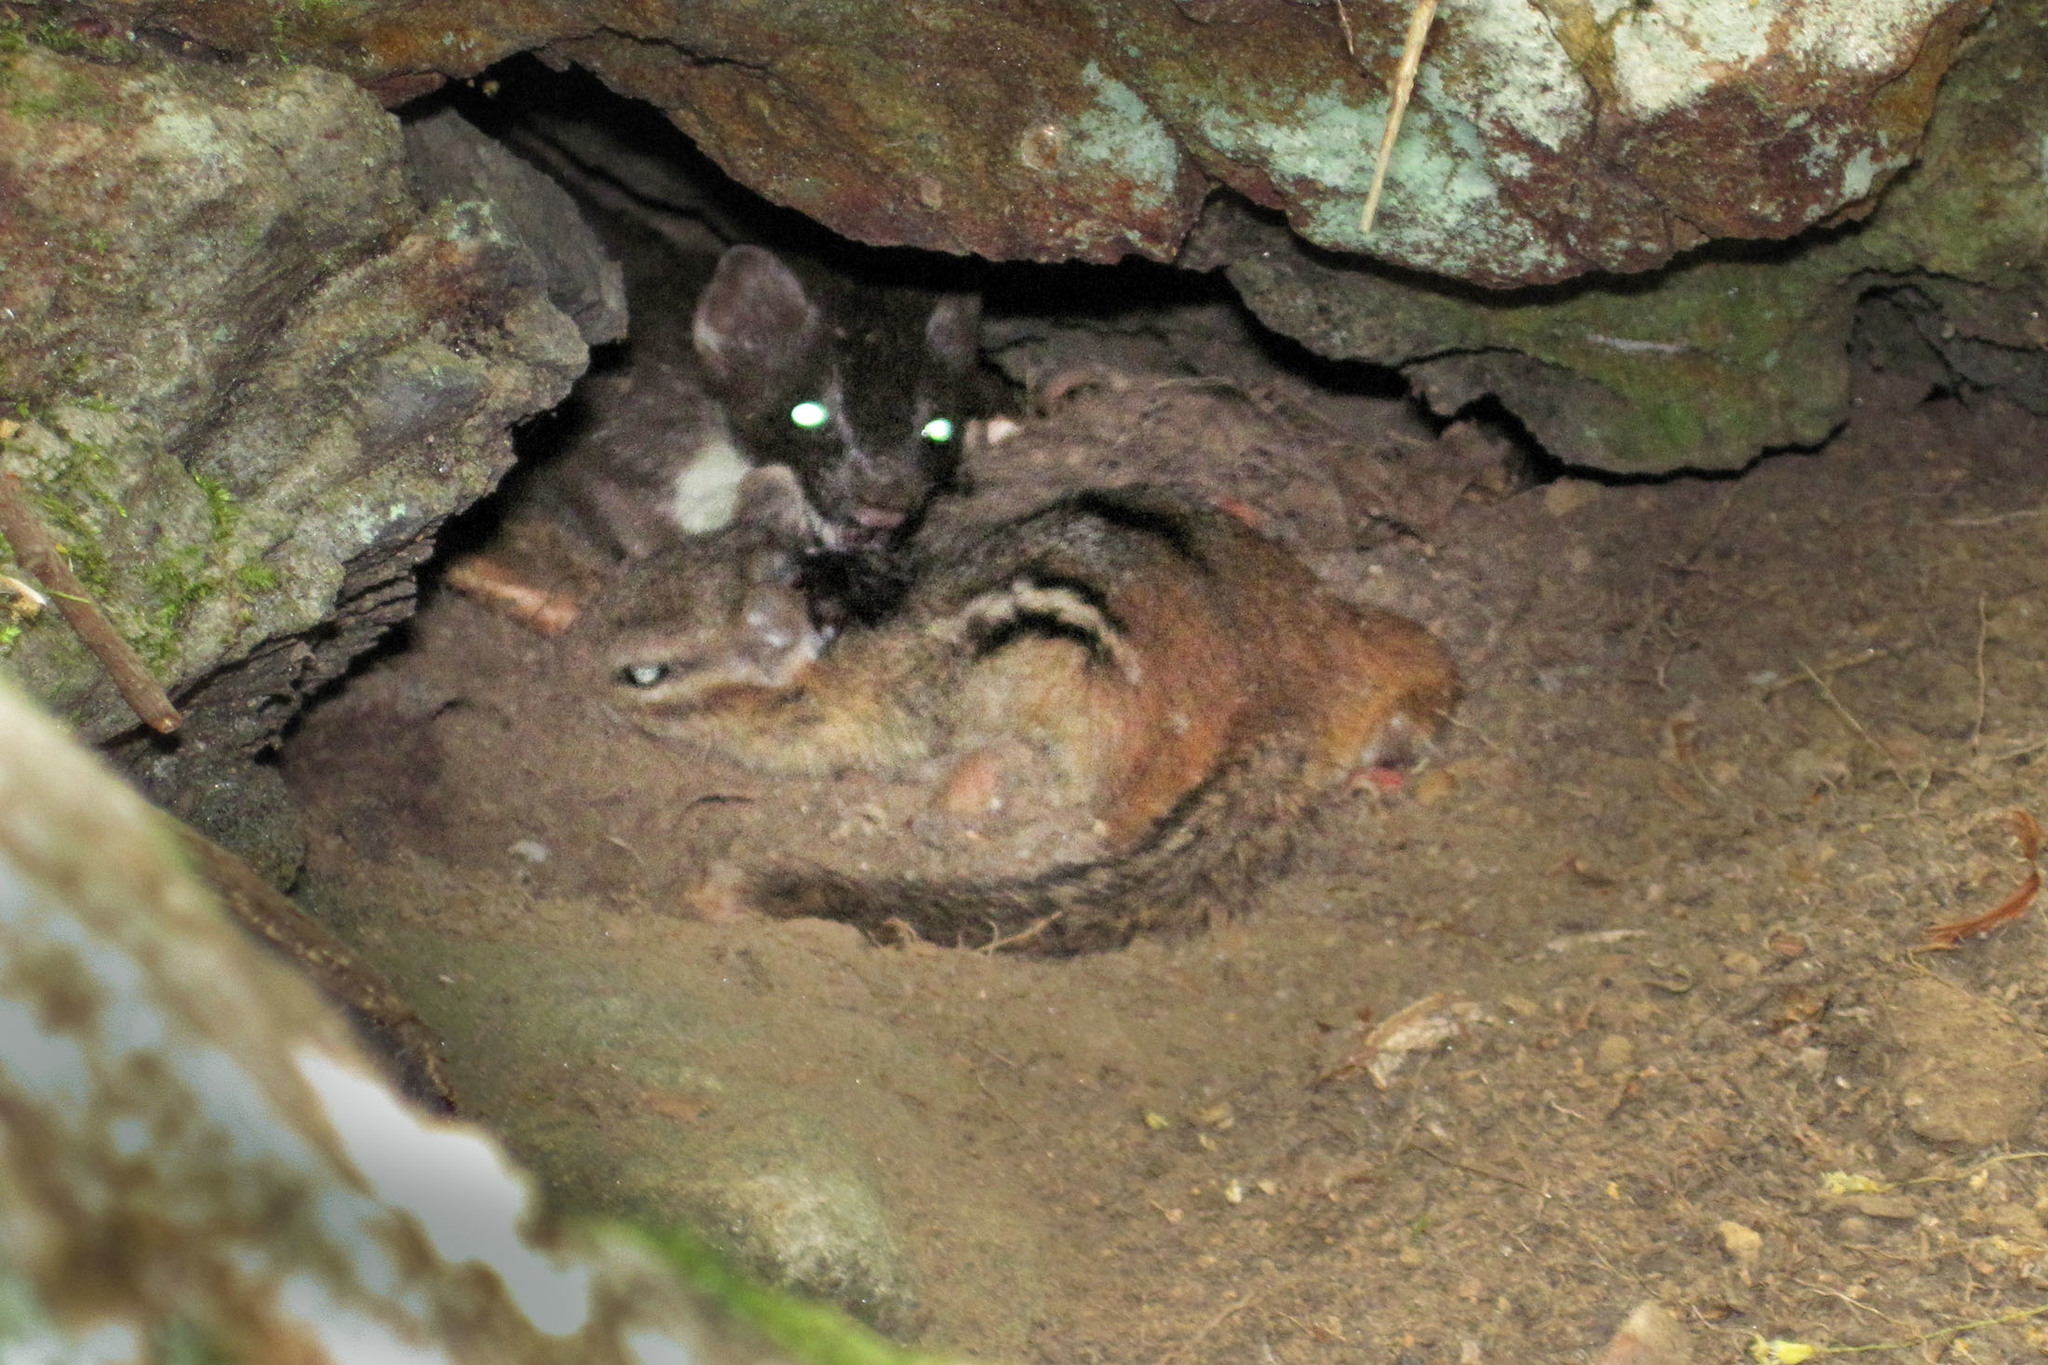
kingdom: Animalia
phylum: Chordata
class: Mammalia
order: Rodentia
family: Sciuridae
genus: Tamias
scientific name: Tamias striatus
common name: Eastern chipmunk
